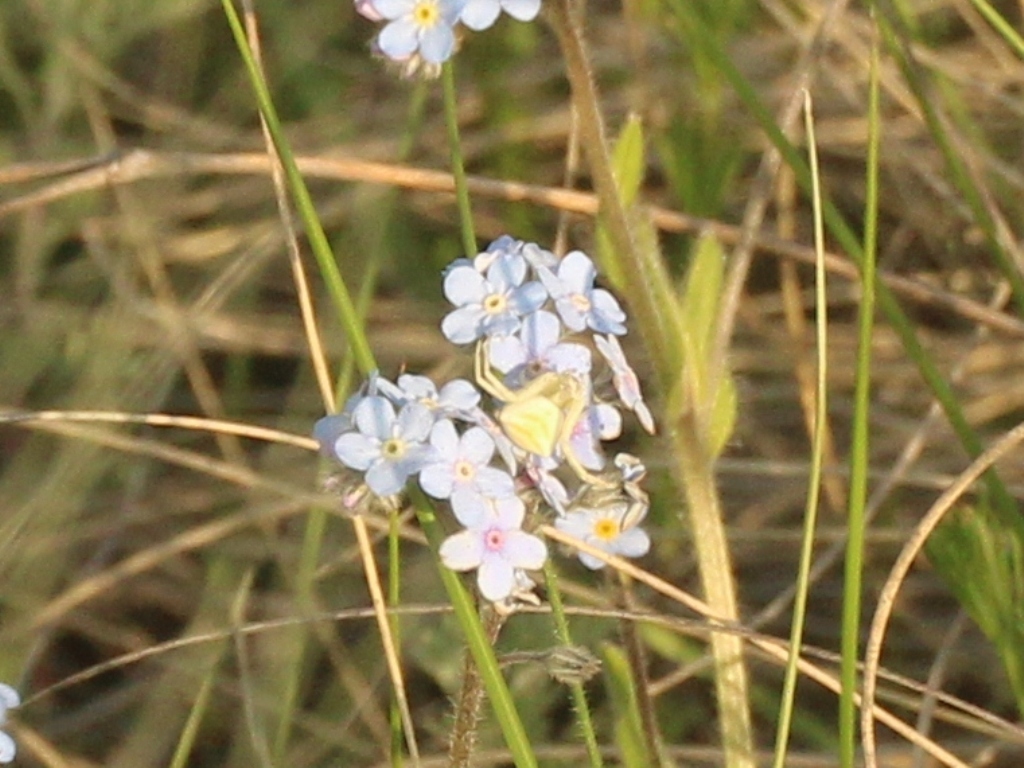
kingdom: Animalia
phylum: Arthropoda
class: Arachnida
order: Araneae
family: Thomisidae
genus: Thomisus
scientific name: Thomisus onustus
